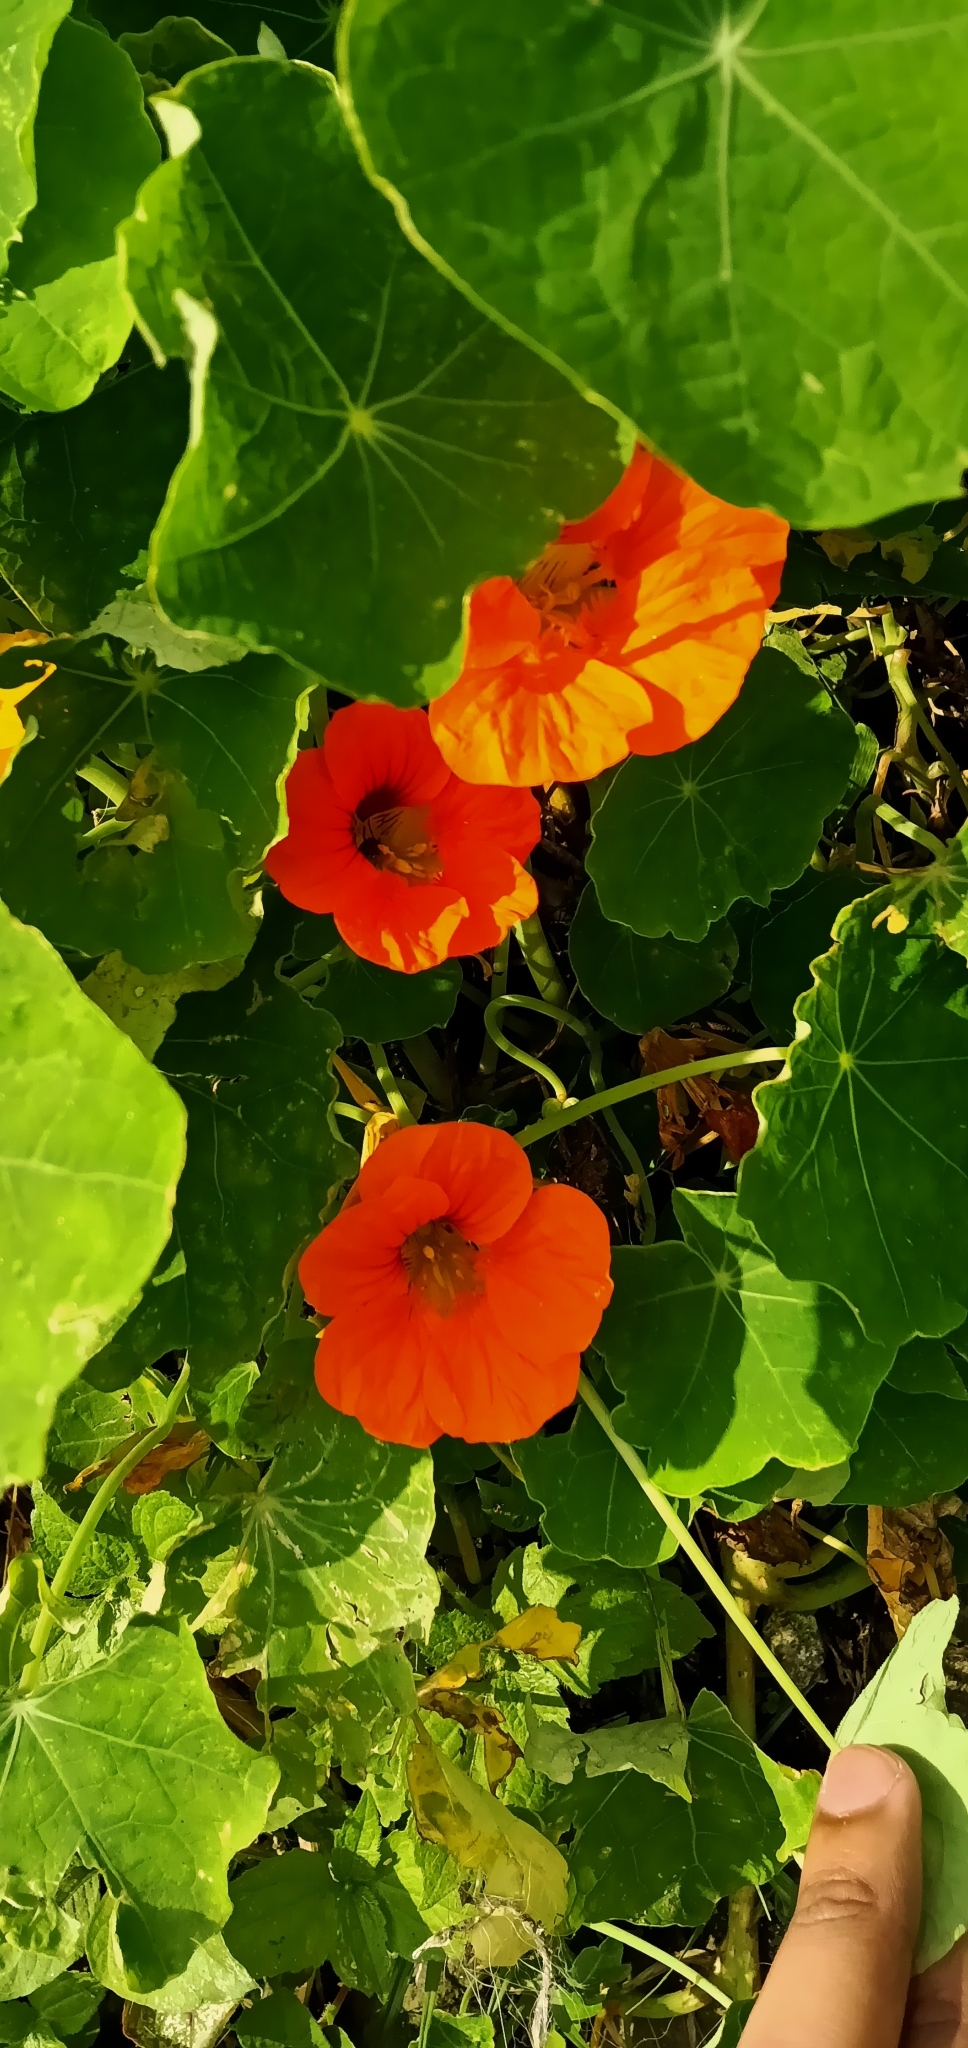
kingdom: Plantae
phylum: Tracheophyta
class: Magnoliopsida
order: Brassicales
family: Tropaeolaceae
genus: Tropaeolum
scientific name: Tropaeolum majus
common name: Nasturtium
